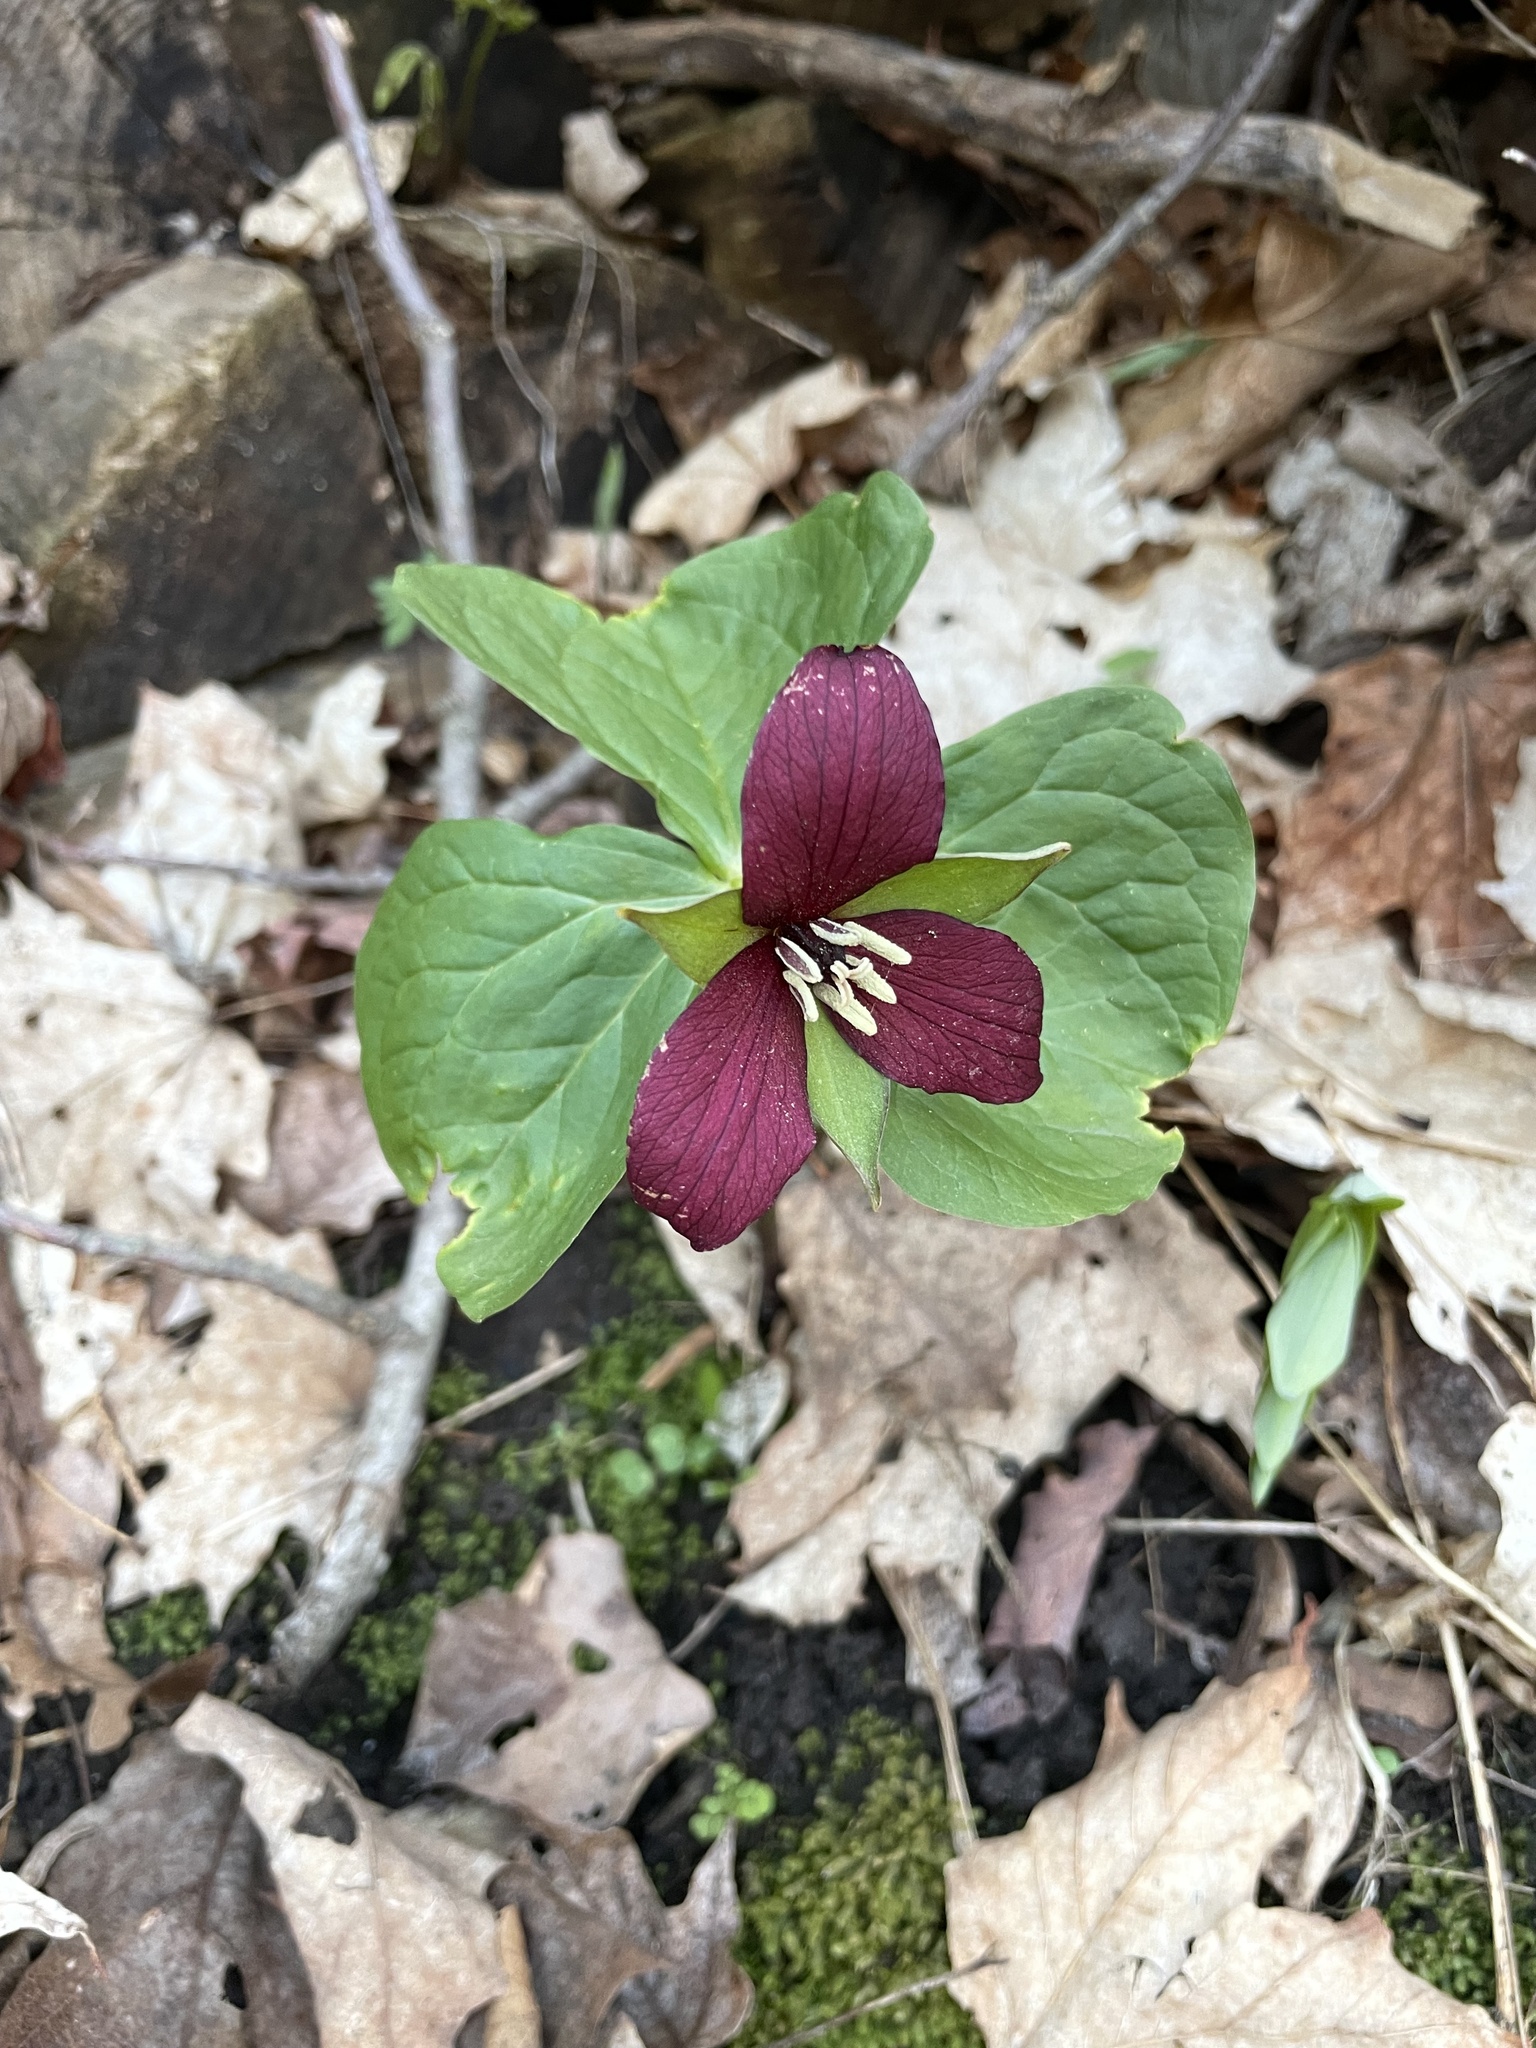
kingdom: Plantae
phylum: Tracheophyta
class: Liliopsida
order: Liliales
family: Melanthiaceae
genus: Trillium
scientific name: Trillium erectum
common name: Purple trillium
